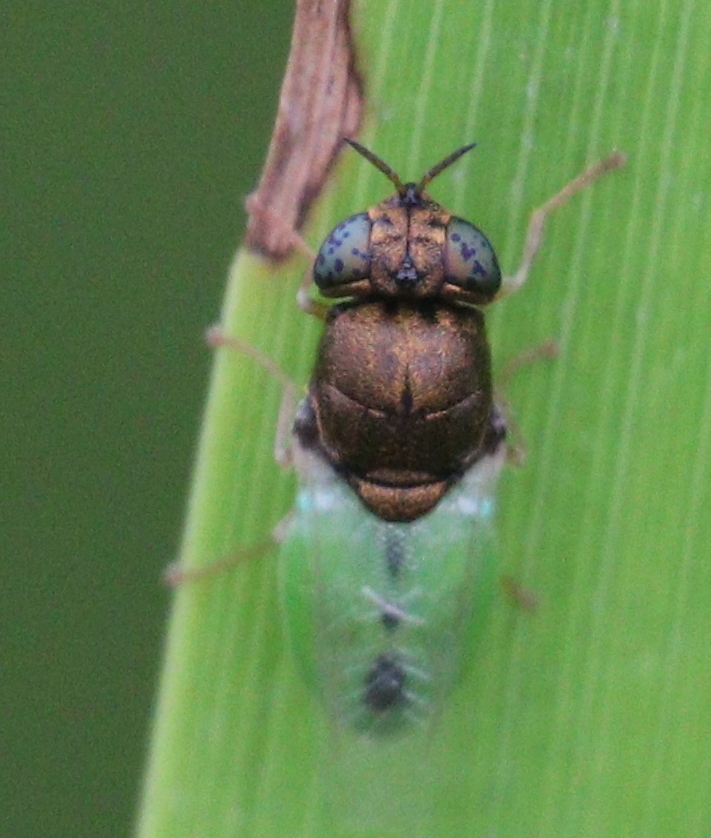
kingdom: Animalia
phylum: Arthropoda
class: Insecta
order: Diptera
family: Stratiomyidae
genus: Oplodontha
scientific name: Oplodontha viridula
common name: Common green colonel
